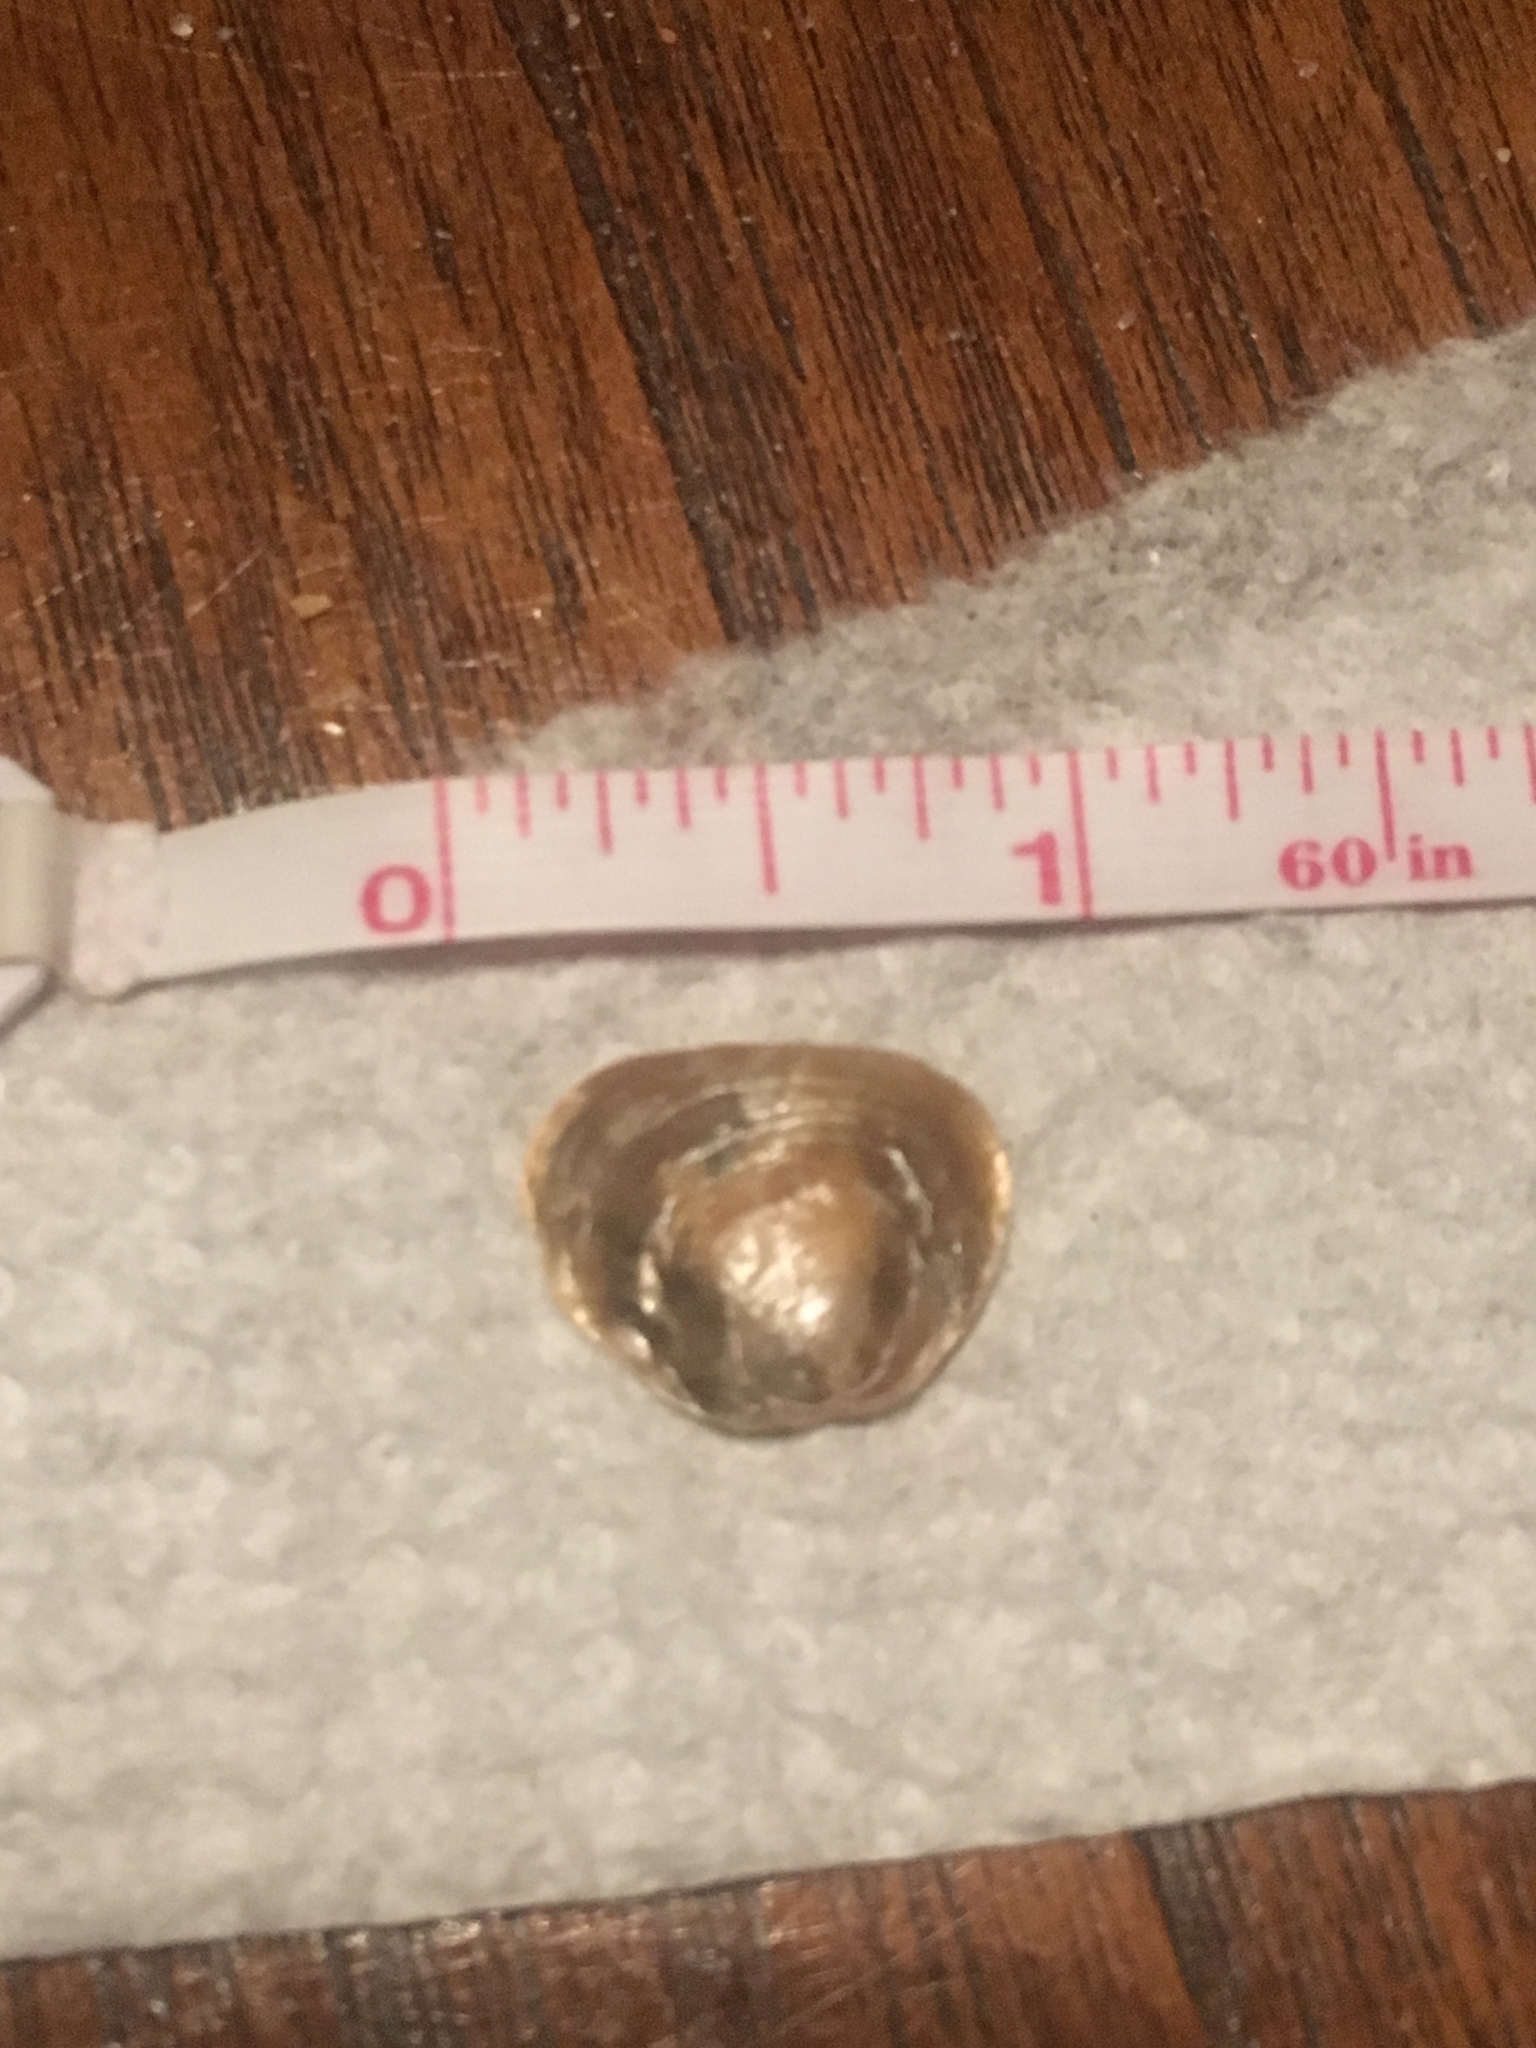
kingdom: Animalia
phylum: Mollusca
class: Bivalvia
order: Pectinida
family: Anomiidae
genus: Anomia
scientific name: Anomia simplex
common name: Common jingle shell
